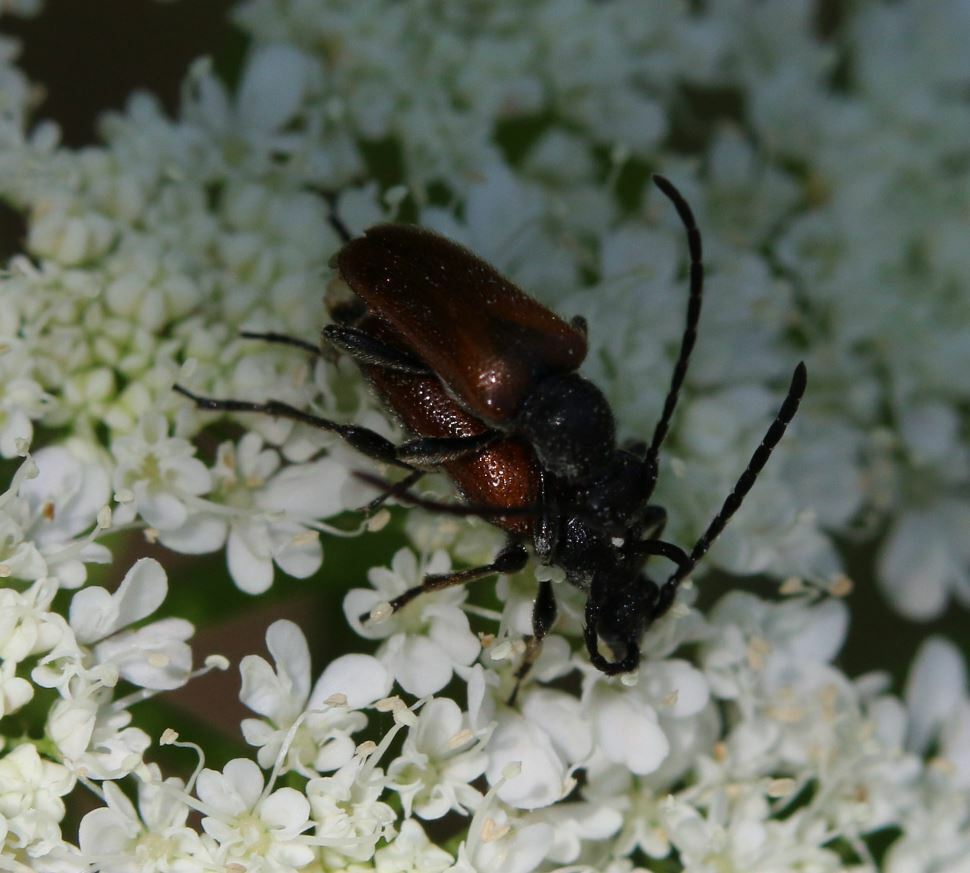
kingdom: Animalia
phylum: Arthropoda
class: Insecta
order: Coleoptera
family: Cerambycidae
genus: Pseudovadonia
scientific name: Pseudovadonia livida
